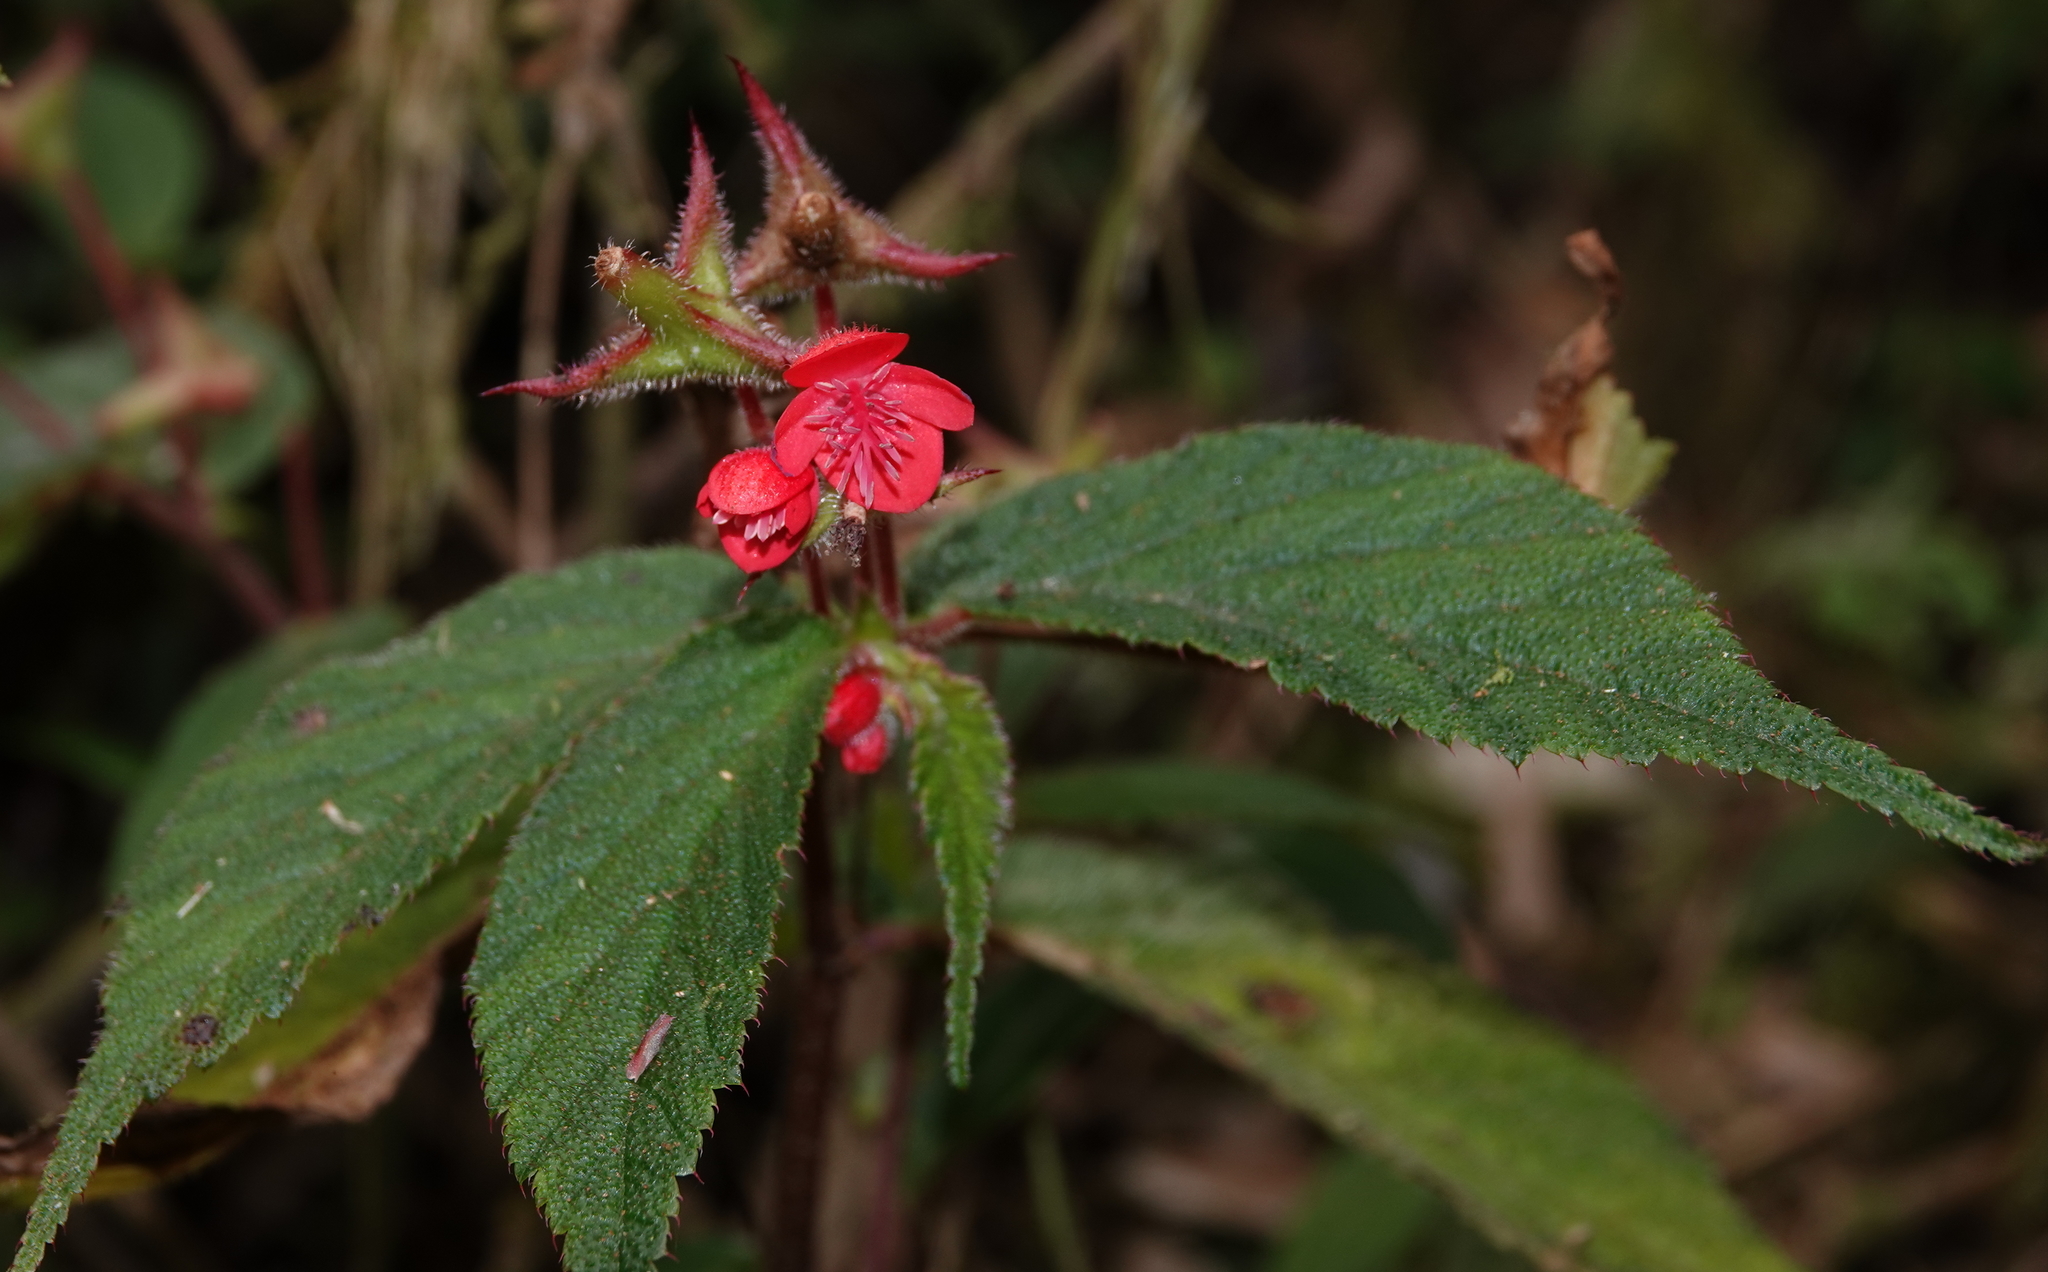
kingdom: Plantae
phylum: Tracheophyta
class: Magnoliopsida
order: Cucurbitales
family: Begoniaceae
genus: Begonia
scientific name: Begonia urticae
